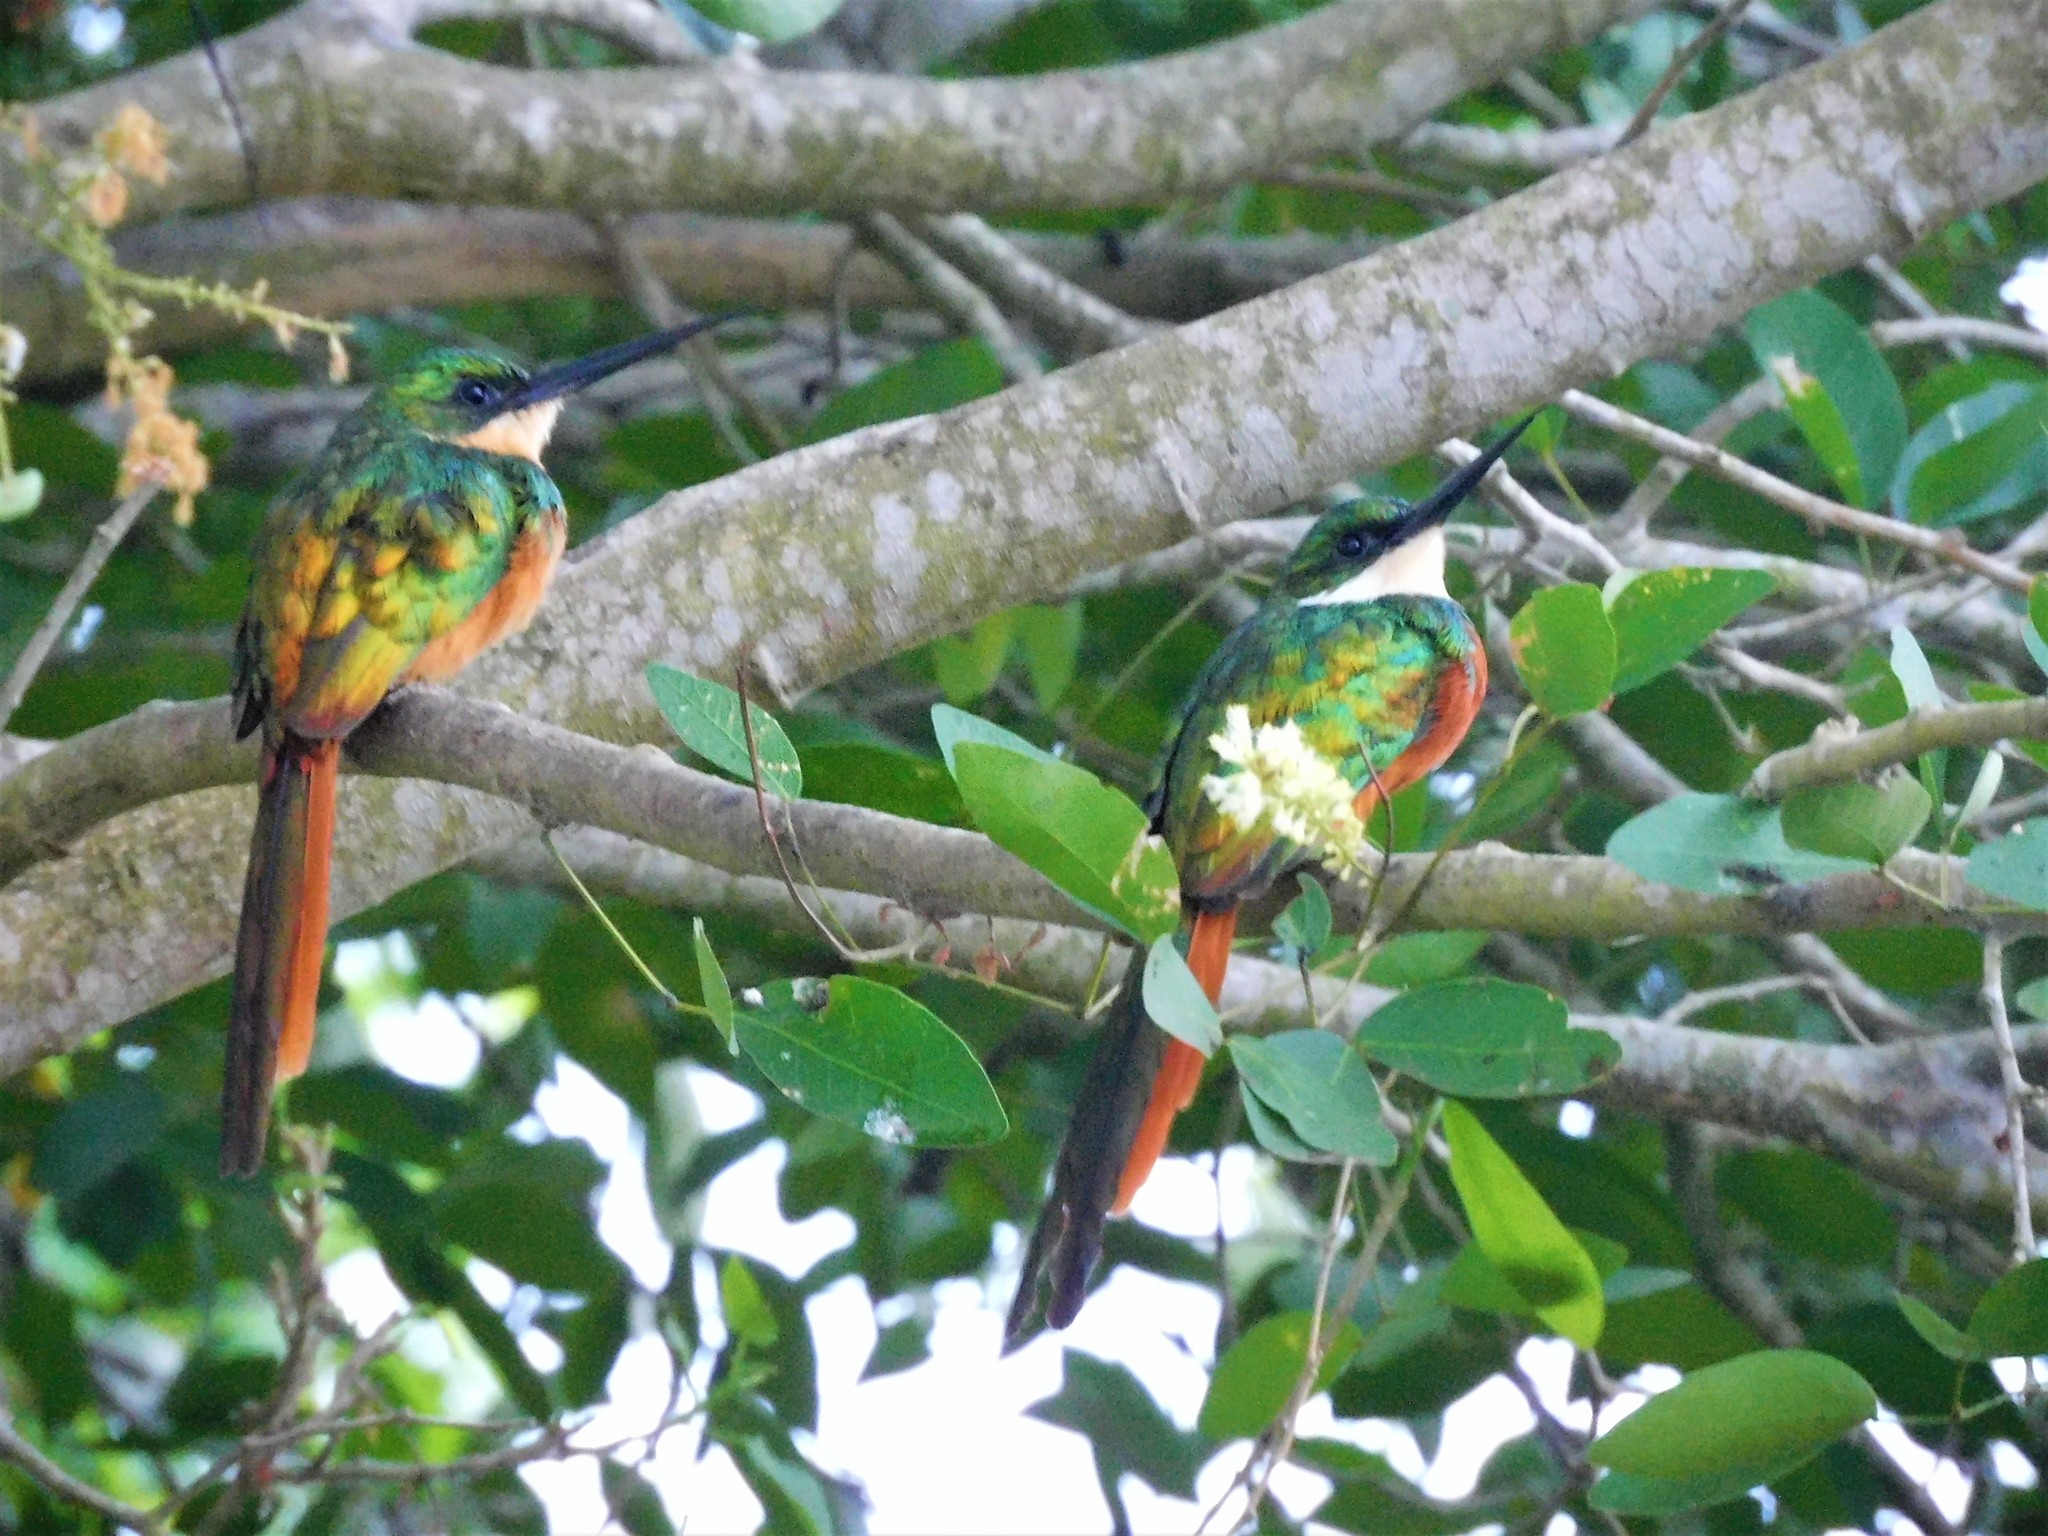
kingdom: Animalia
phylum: Chordata
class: Aves
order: Piciformes
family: Galbulidae
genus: Galbula
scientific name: Galbula ruficauda
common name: Rufous-tailed jacamar
